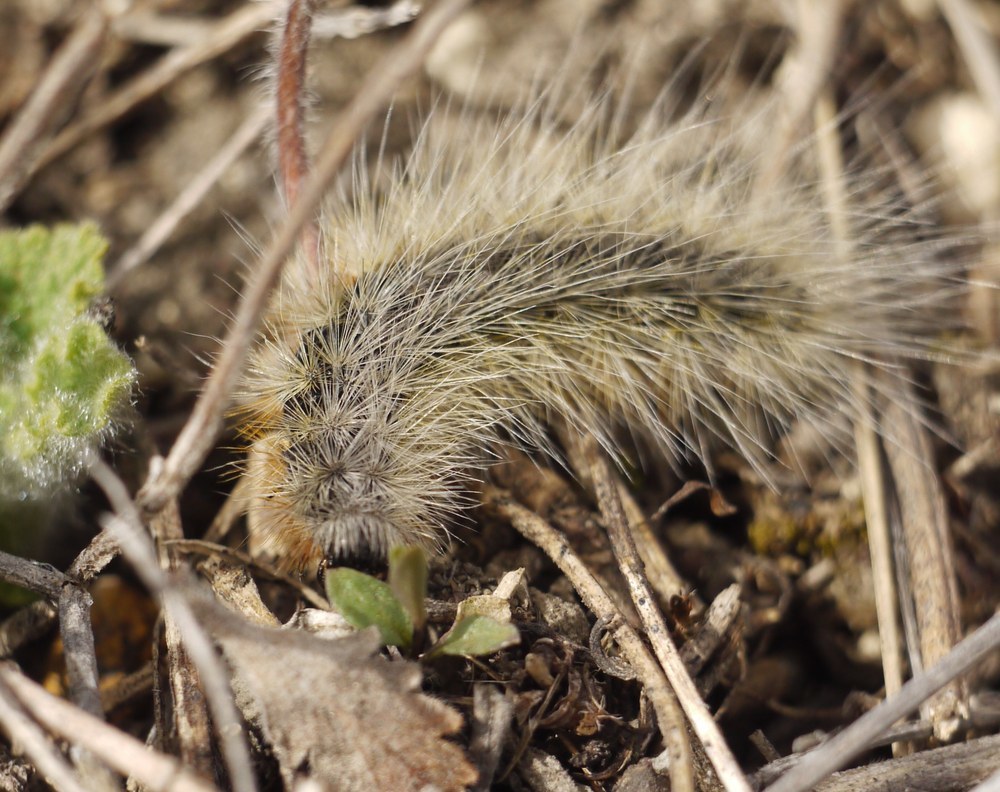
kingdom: Animalia
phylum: Arthropoda
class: Insecta
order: Lepidoptera
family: Erebidae
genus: Eucharia
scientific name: Eucharia festiva
